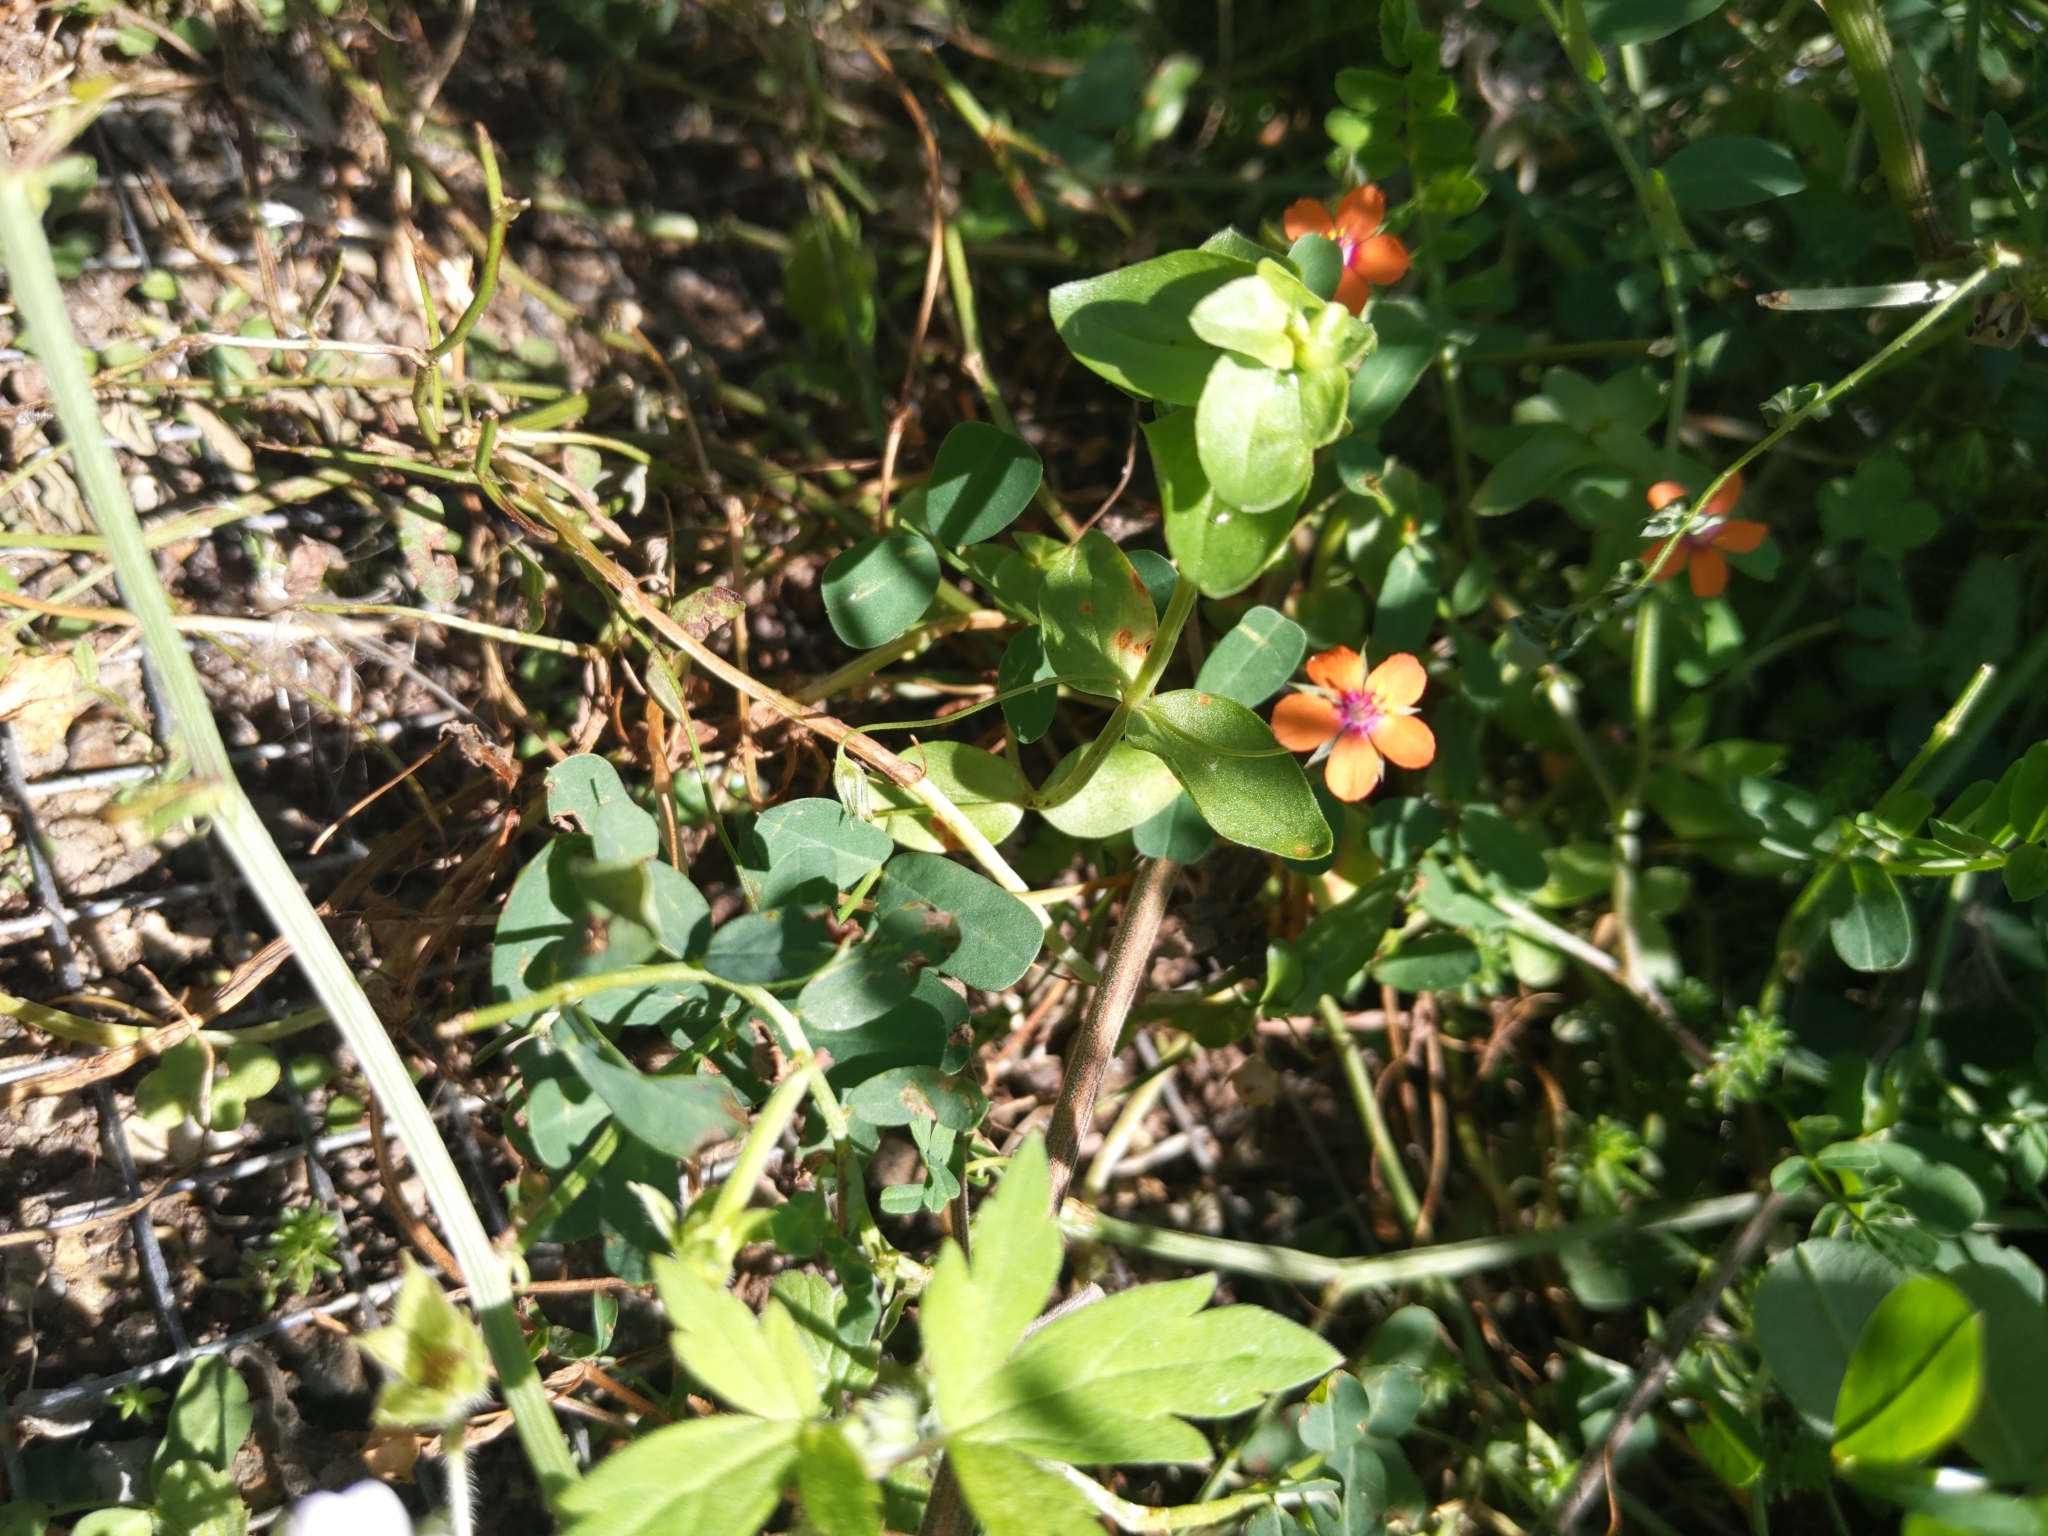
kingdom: Plantae
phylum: Tracheophyta
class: Magnoliopsida
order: Ericales
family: Primulaceae
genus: Lysimachia
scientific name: Lysimachia arvensis
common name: Scarlet pimpernel
